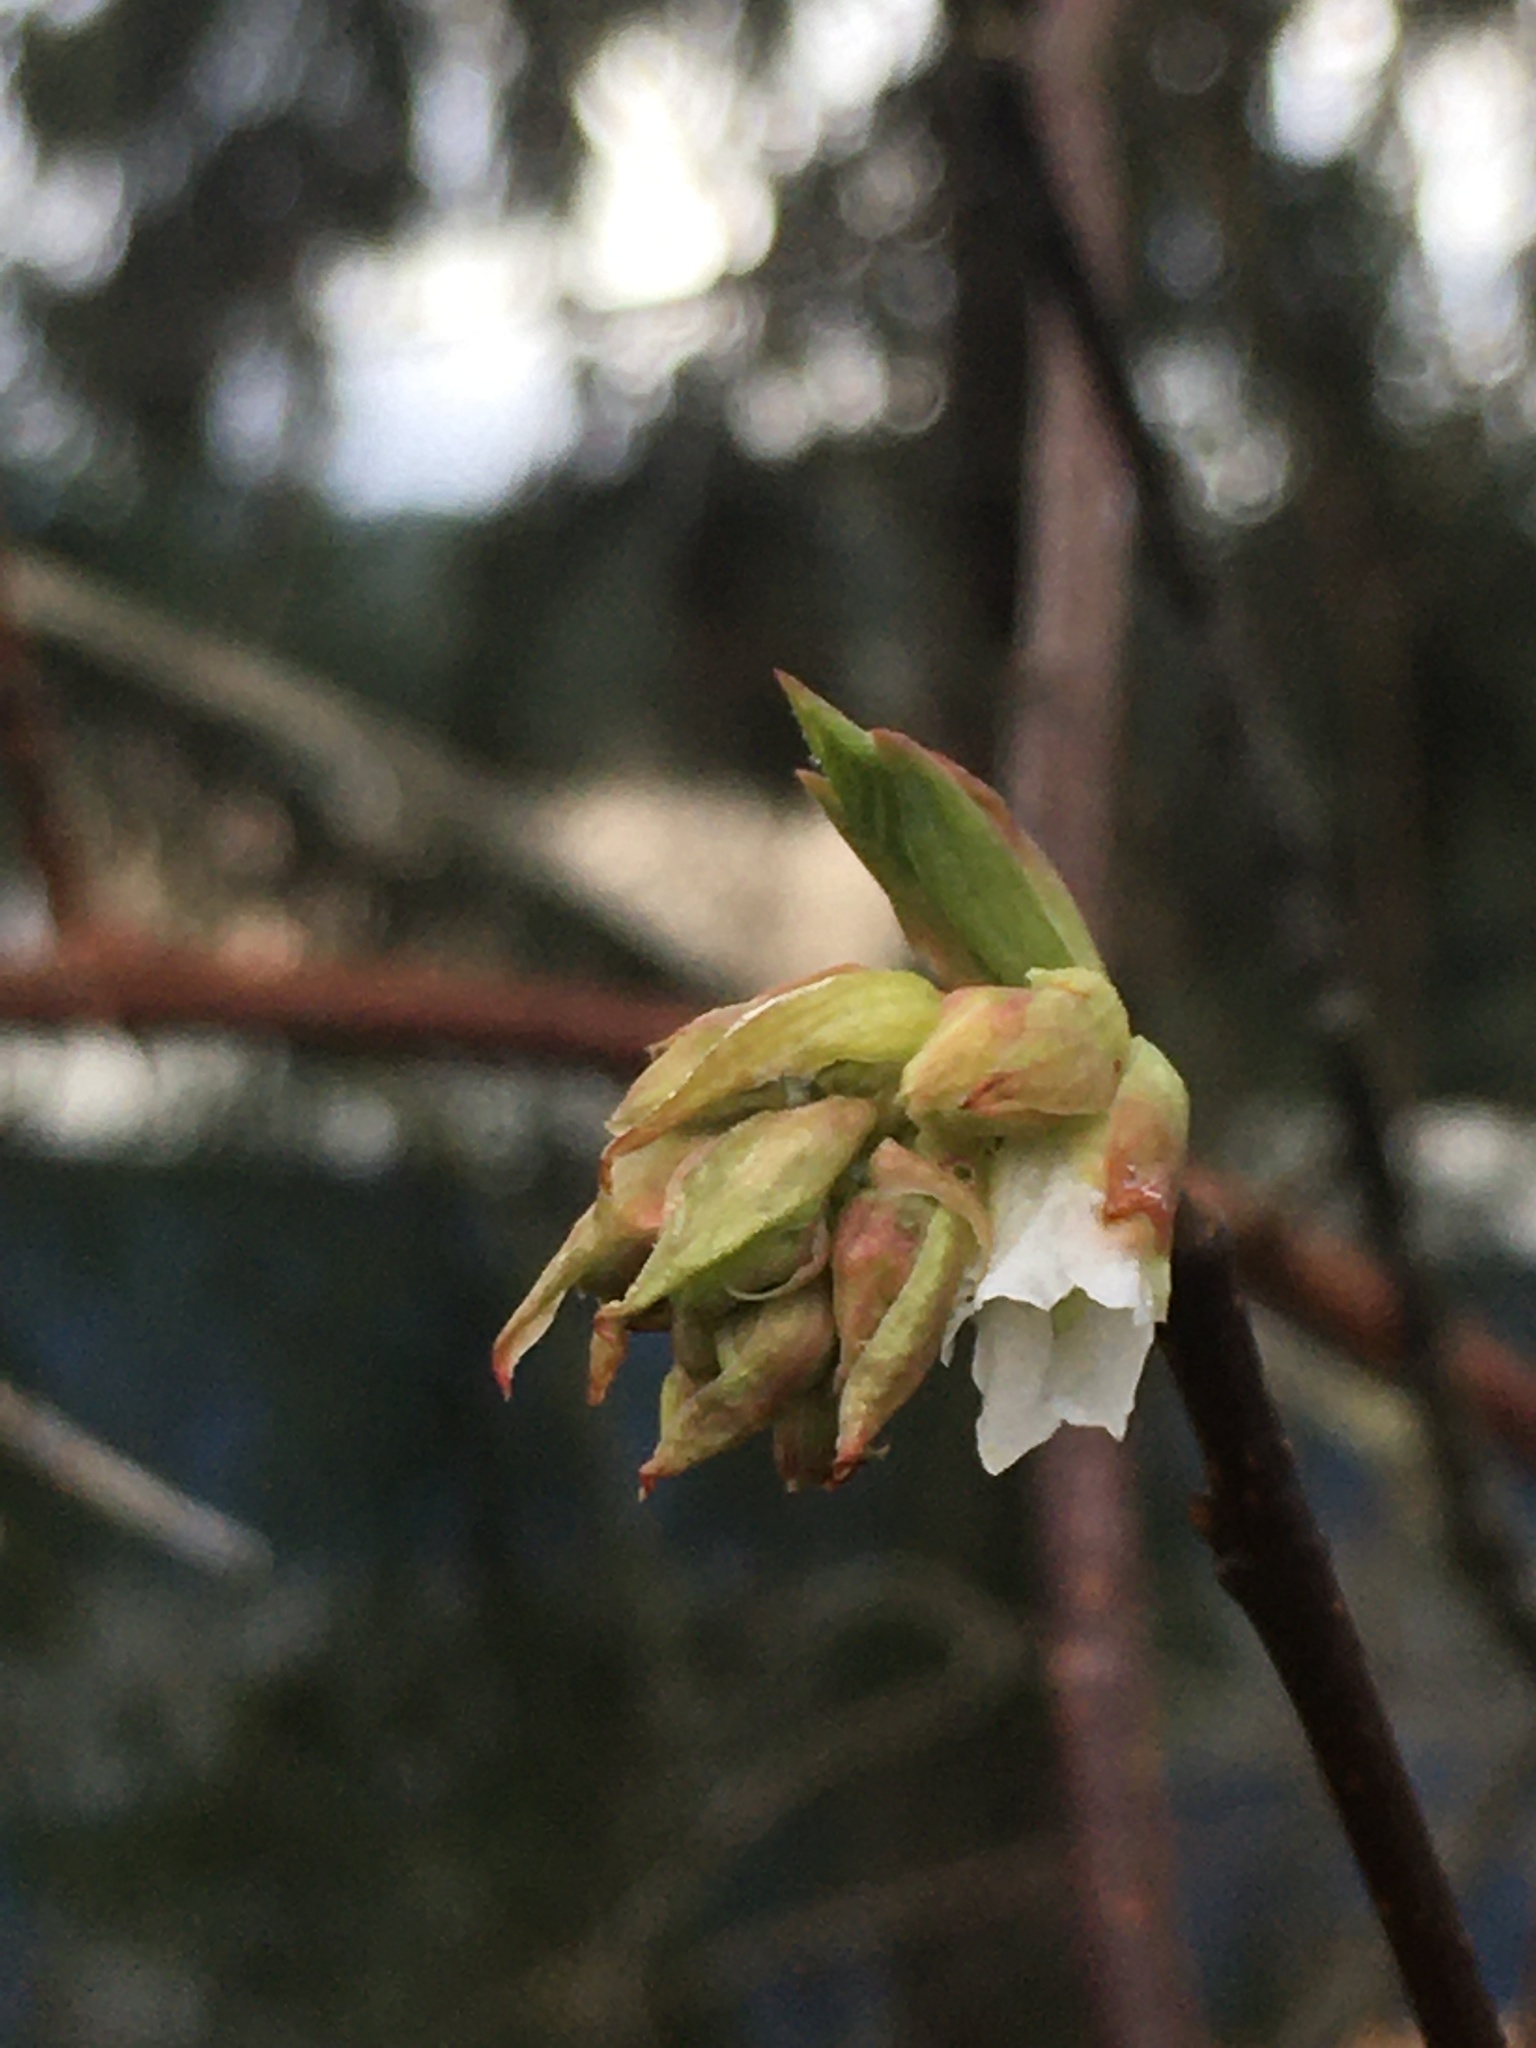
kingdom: Plantae
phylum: Tracheophyta
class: Magnoliopsida
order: Rosales
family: Rosaceae
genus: Oemleria
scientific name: Oemleria cerasiformis
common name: Osoberry
